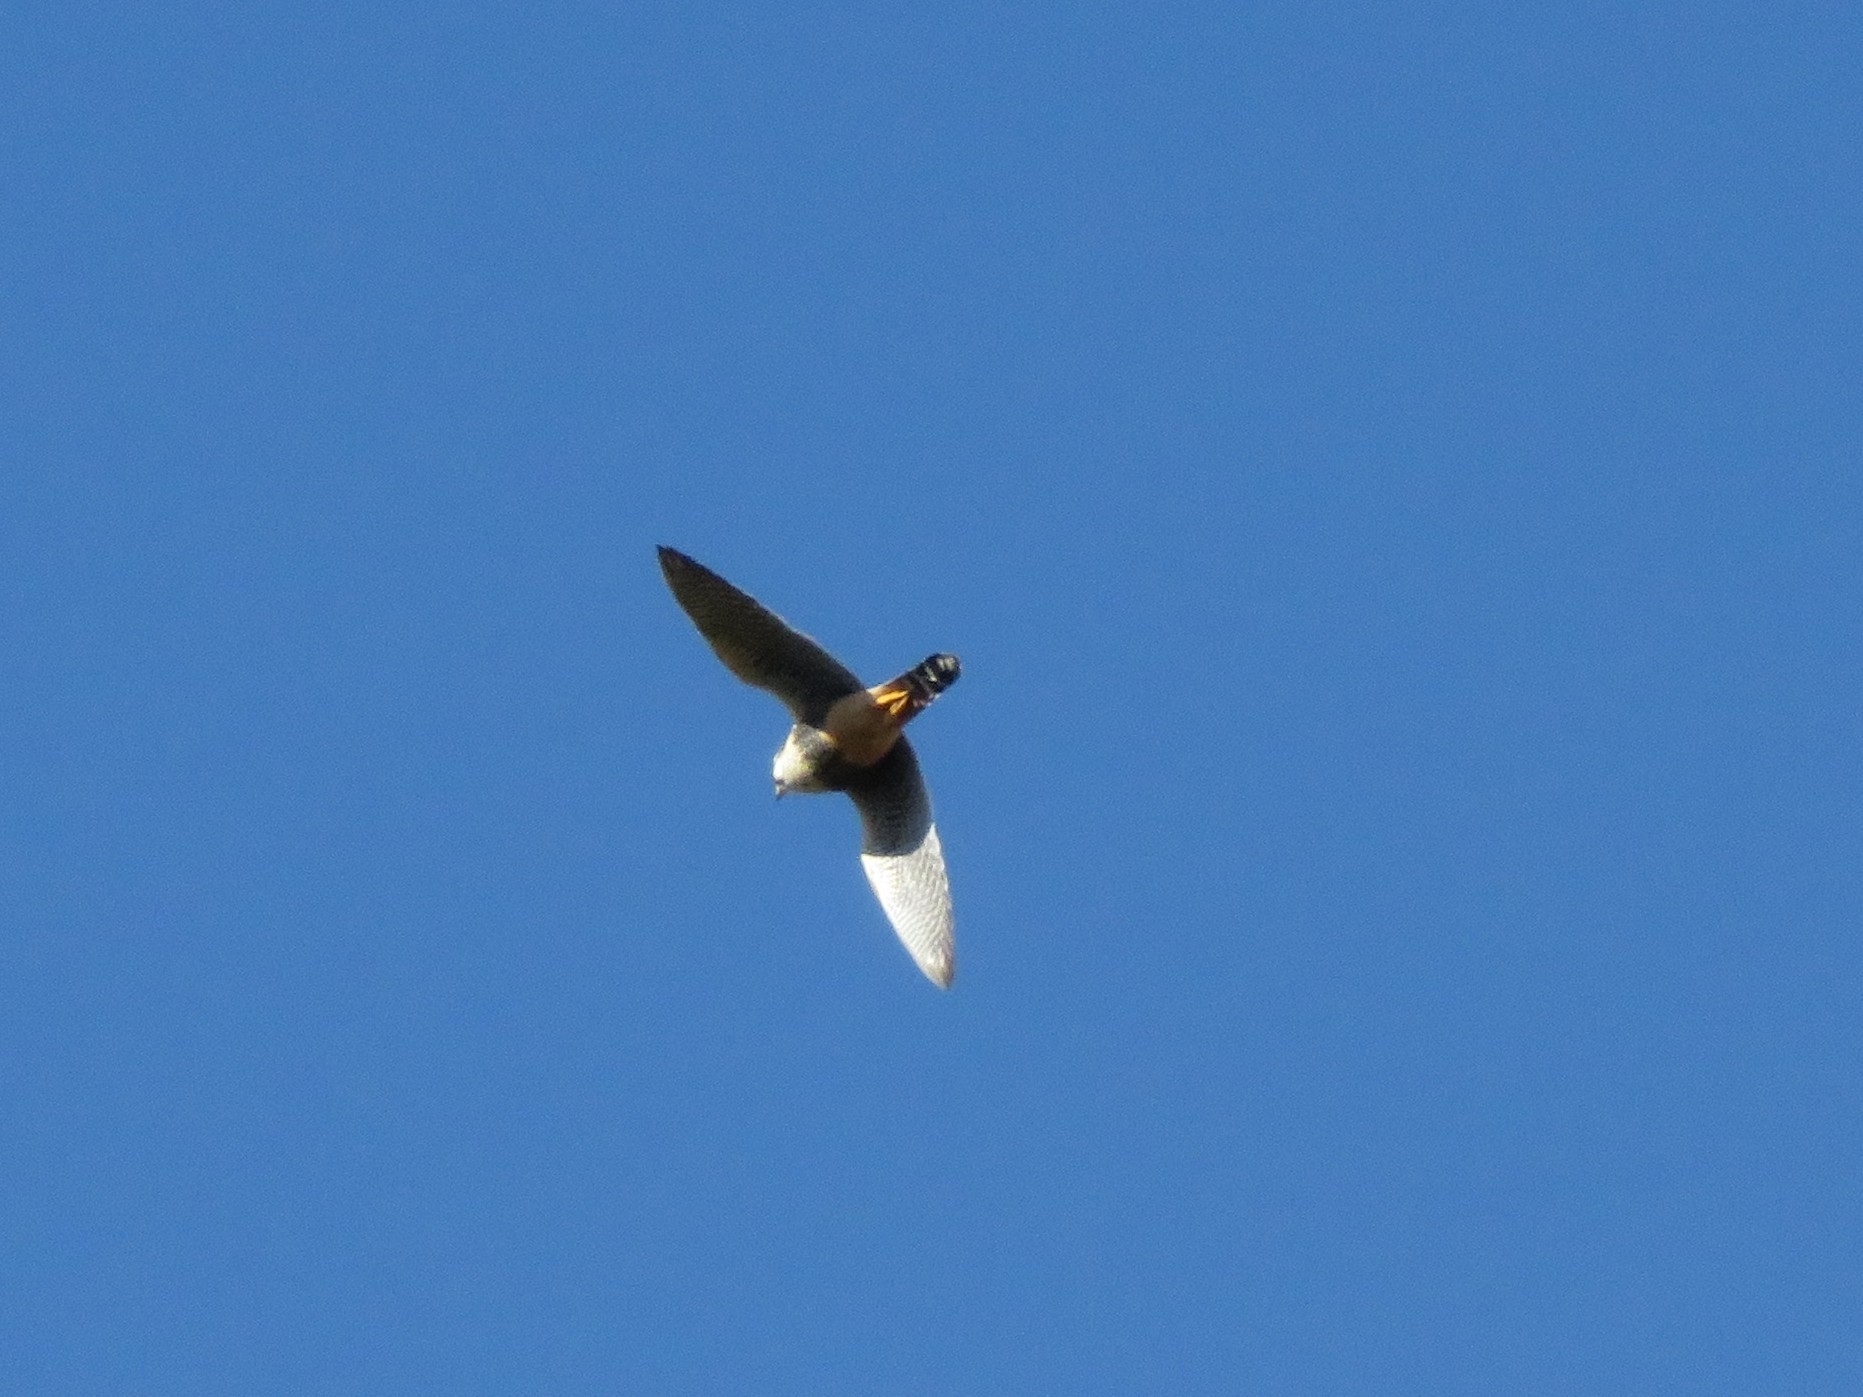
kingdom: Animalia
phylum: Chordata
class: Aves
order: Falconiformes
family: Falconidae
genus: Falco
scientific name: Falco femoralis
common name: Aplomado falcon
